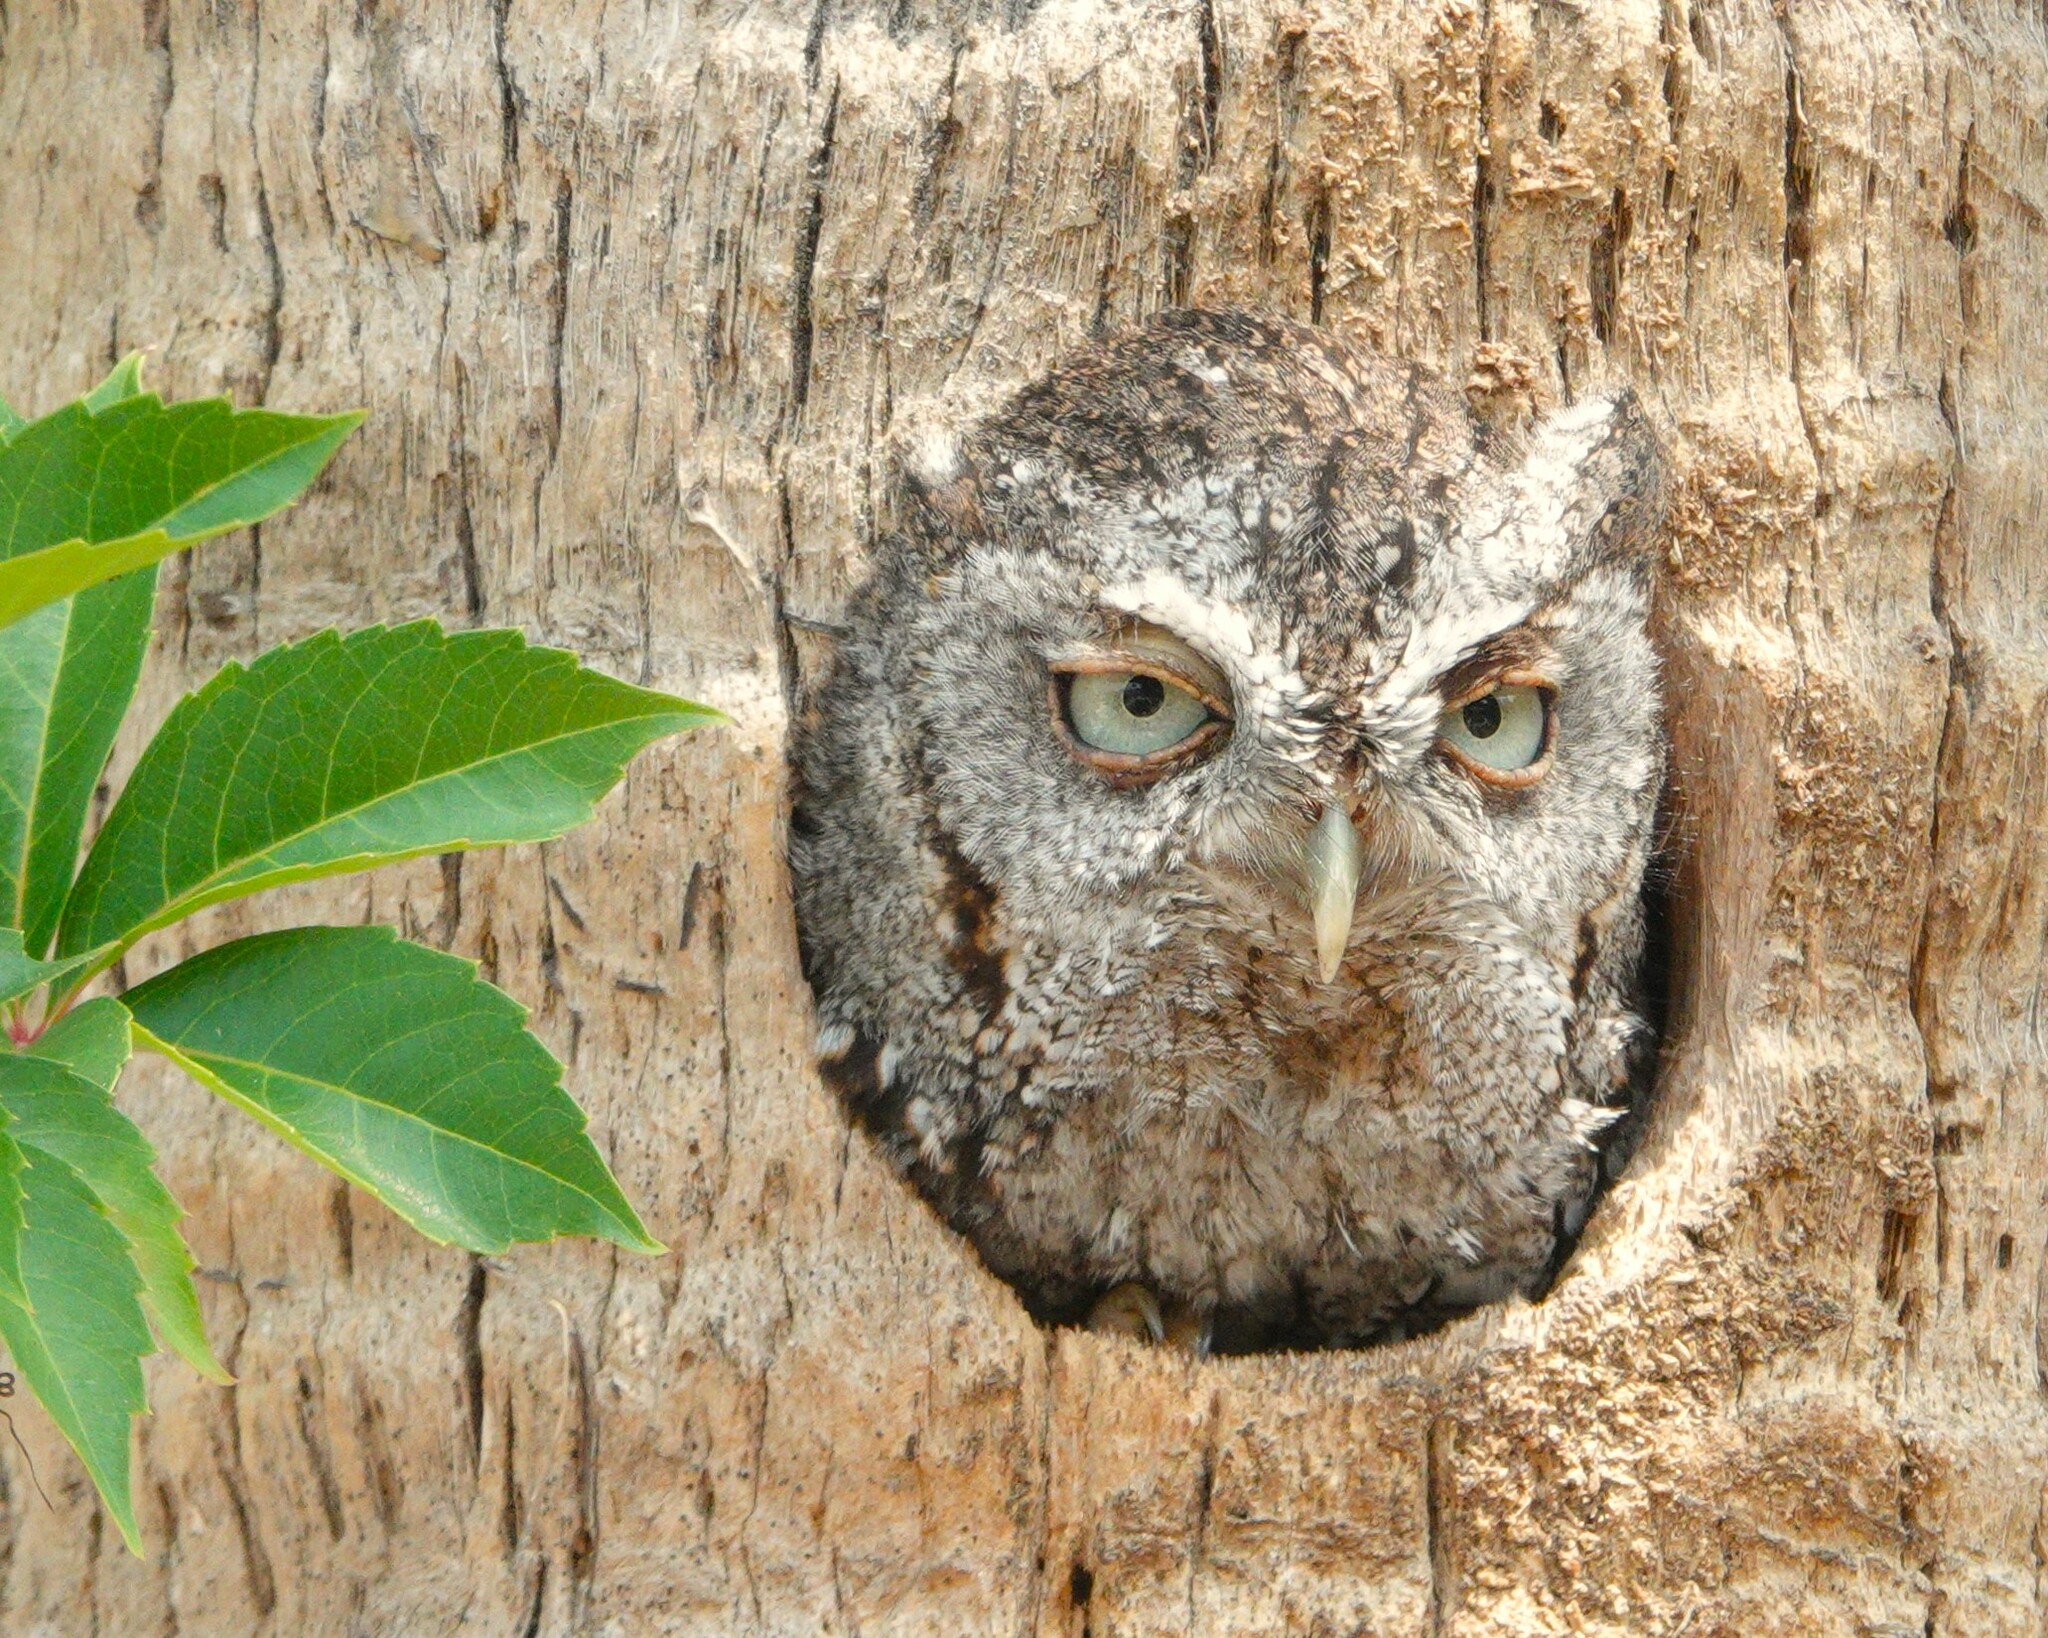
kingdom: Animalia
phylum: Chordata
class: Aves
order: Strigiformes
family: Strigidae
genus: Megascops
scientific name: Megascops asio
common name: Eastern screech-owl
